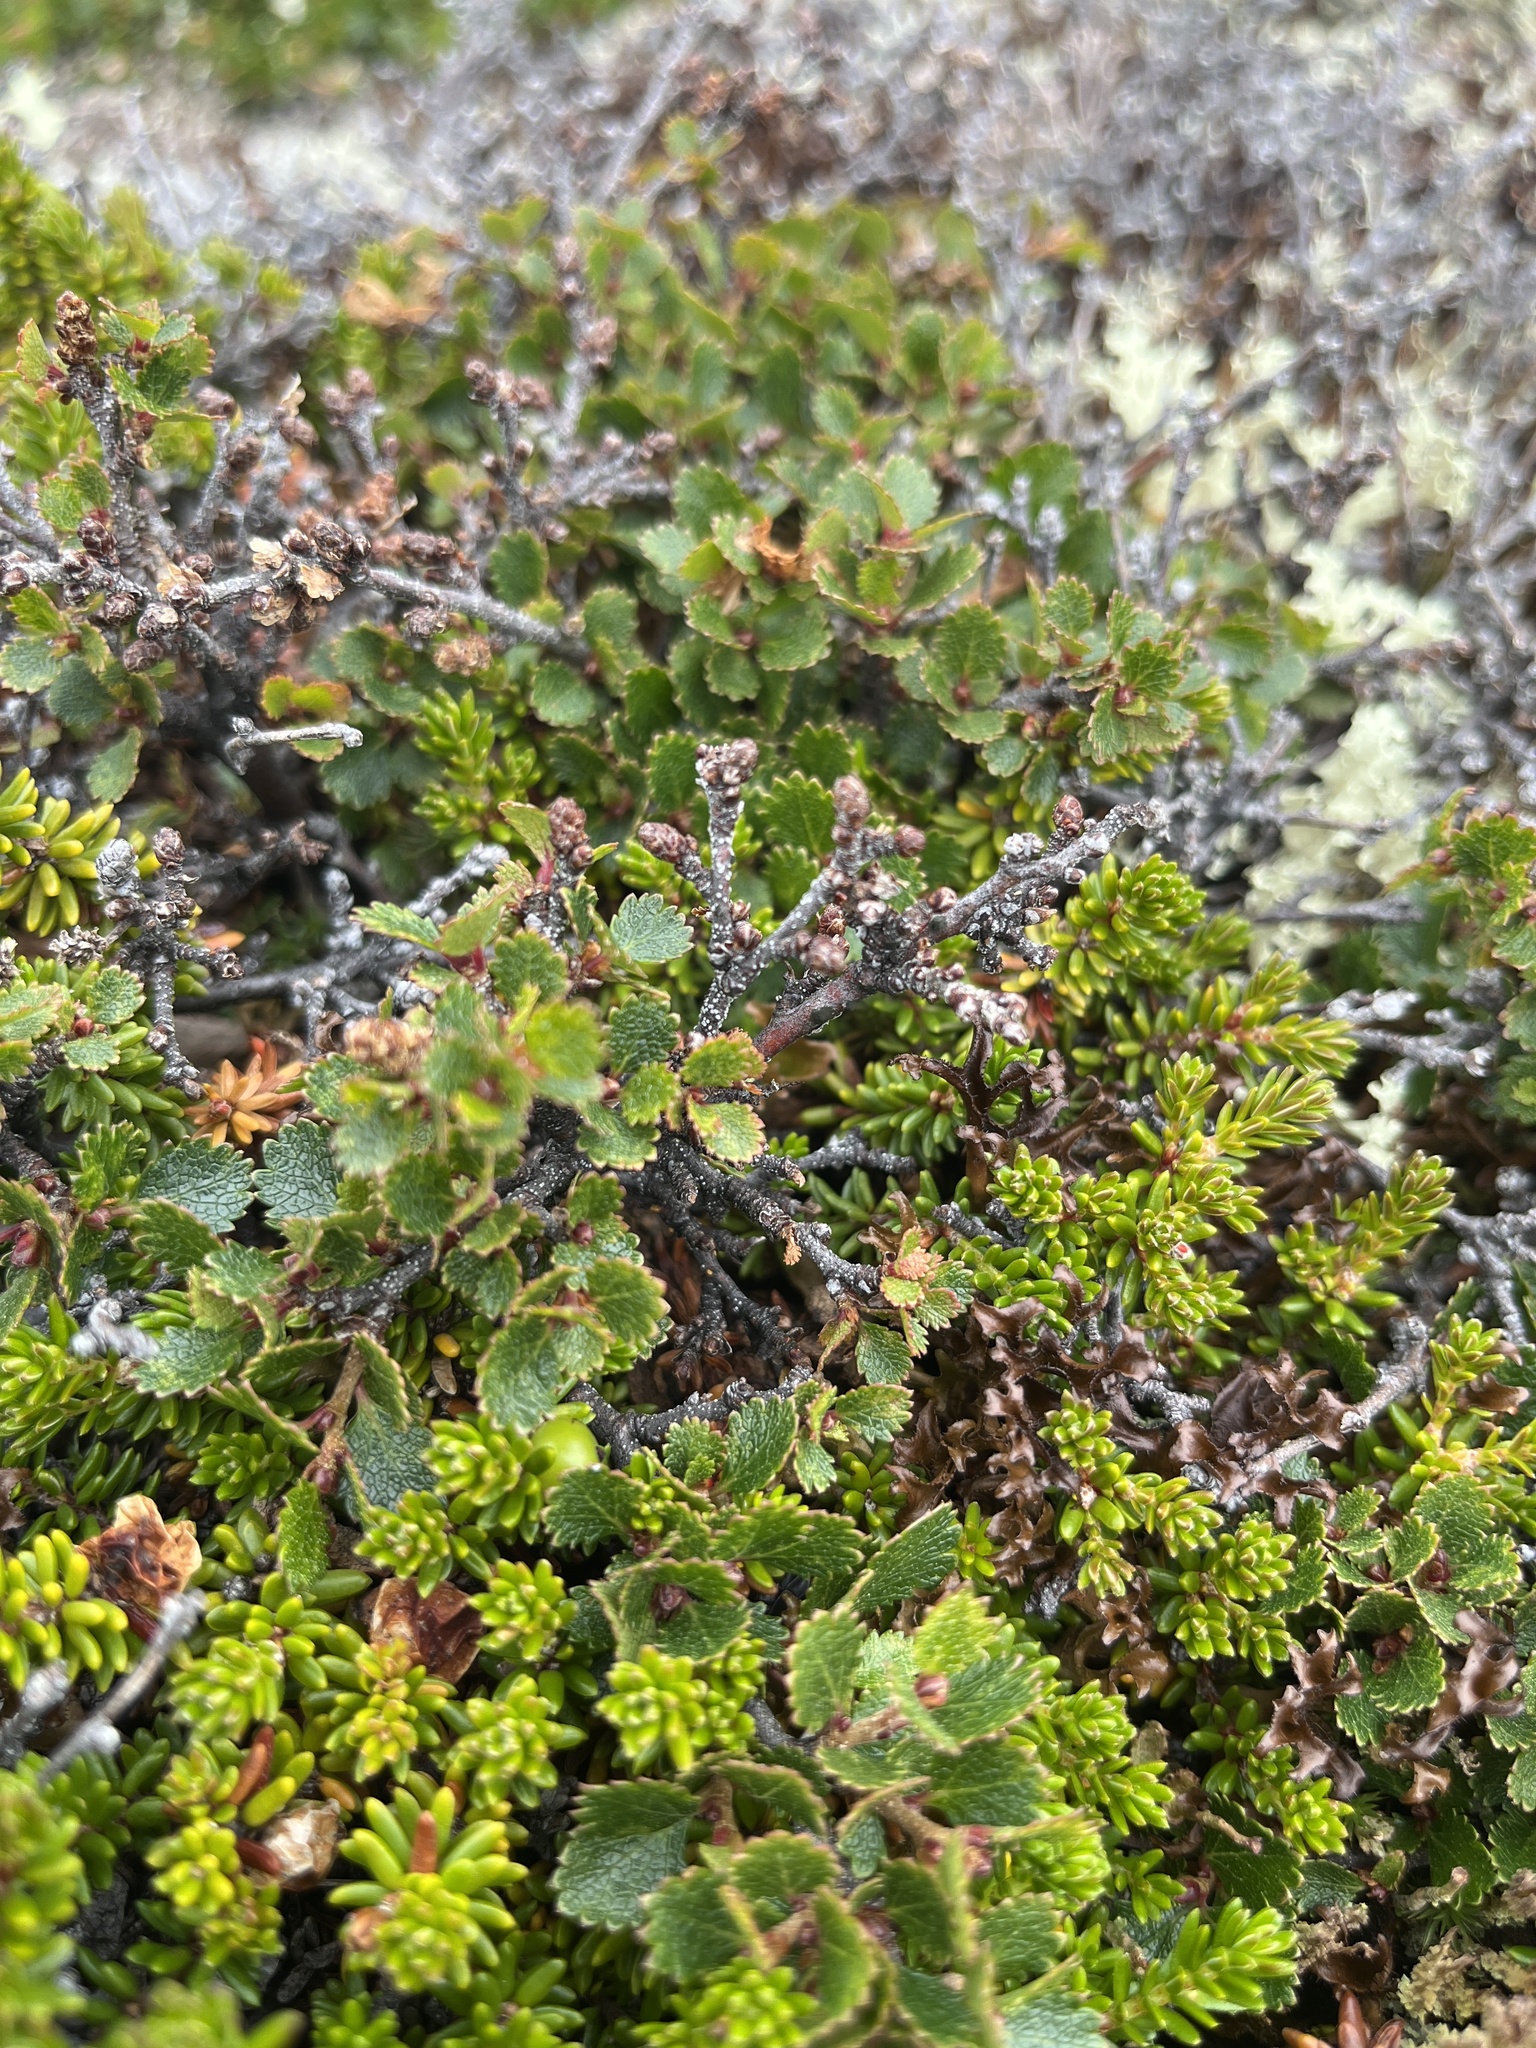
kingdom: Plantae
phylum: Tracheophyta
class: Magnoliopsida
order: Fagales
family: Betulaceae
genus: Betula
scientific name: Betula glandulosa
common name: Dwarf birch
